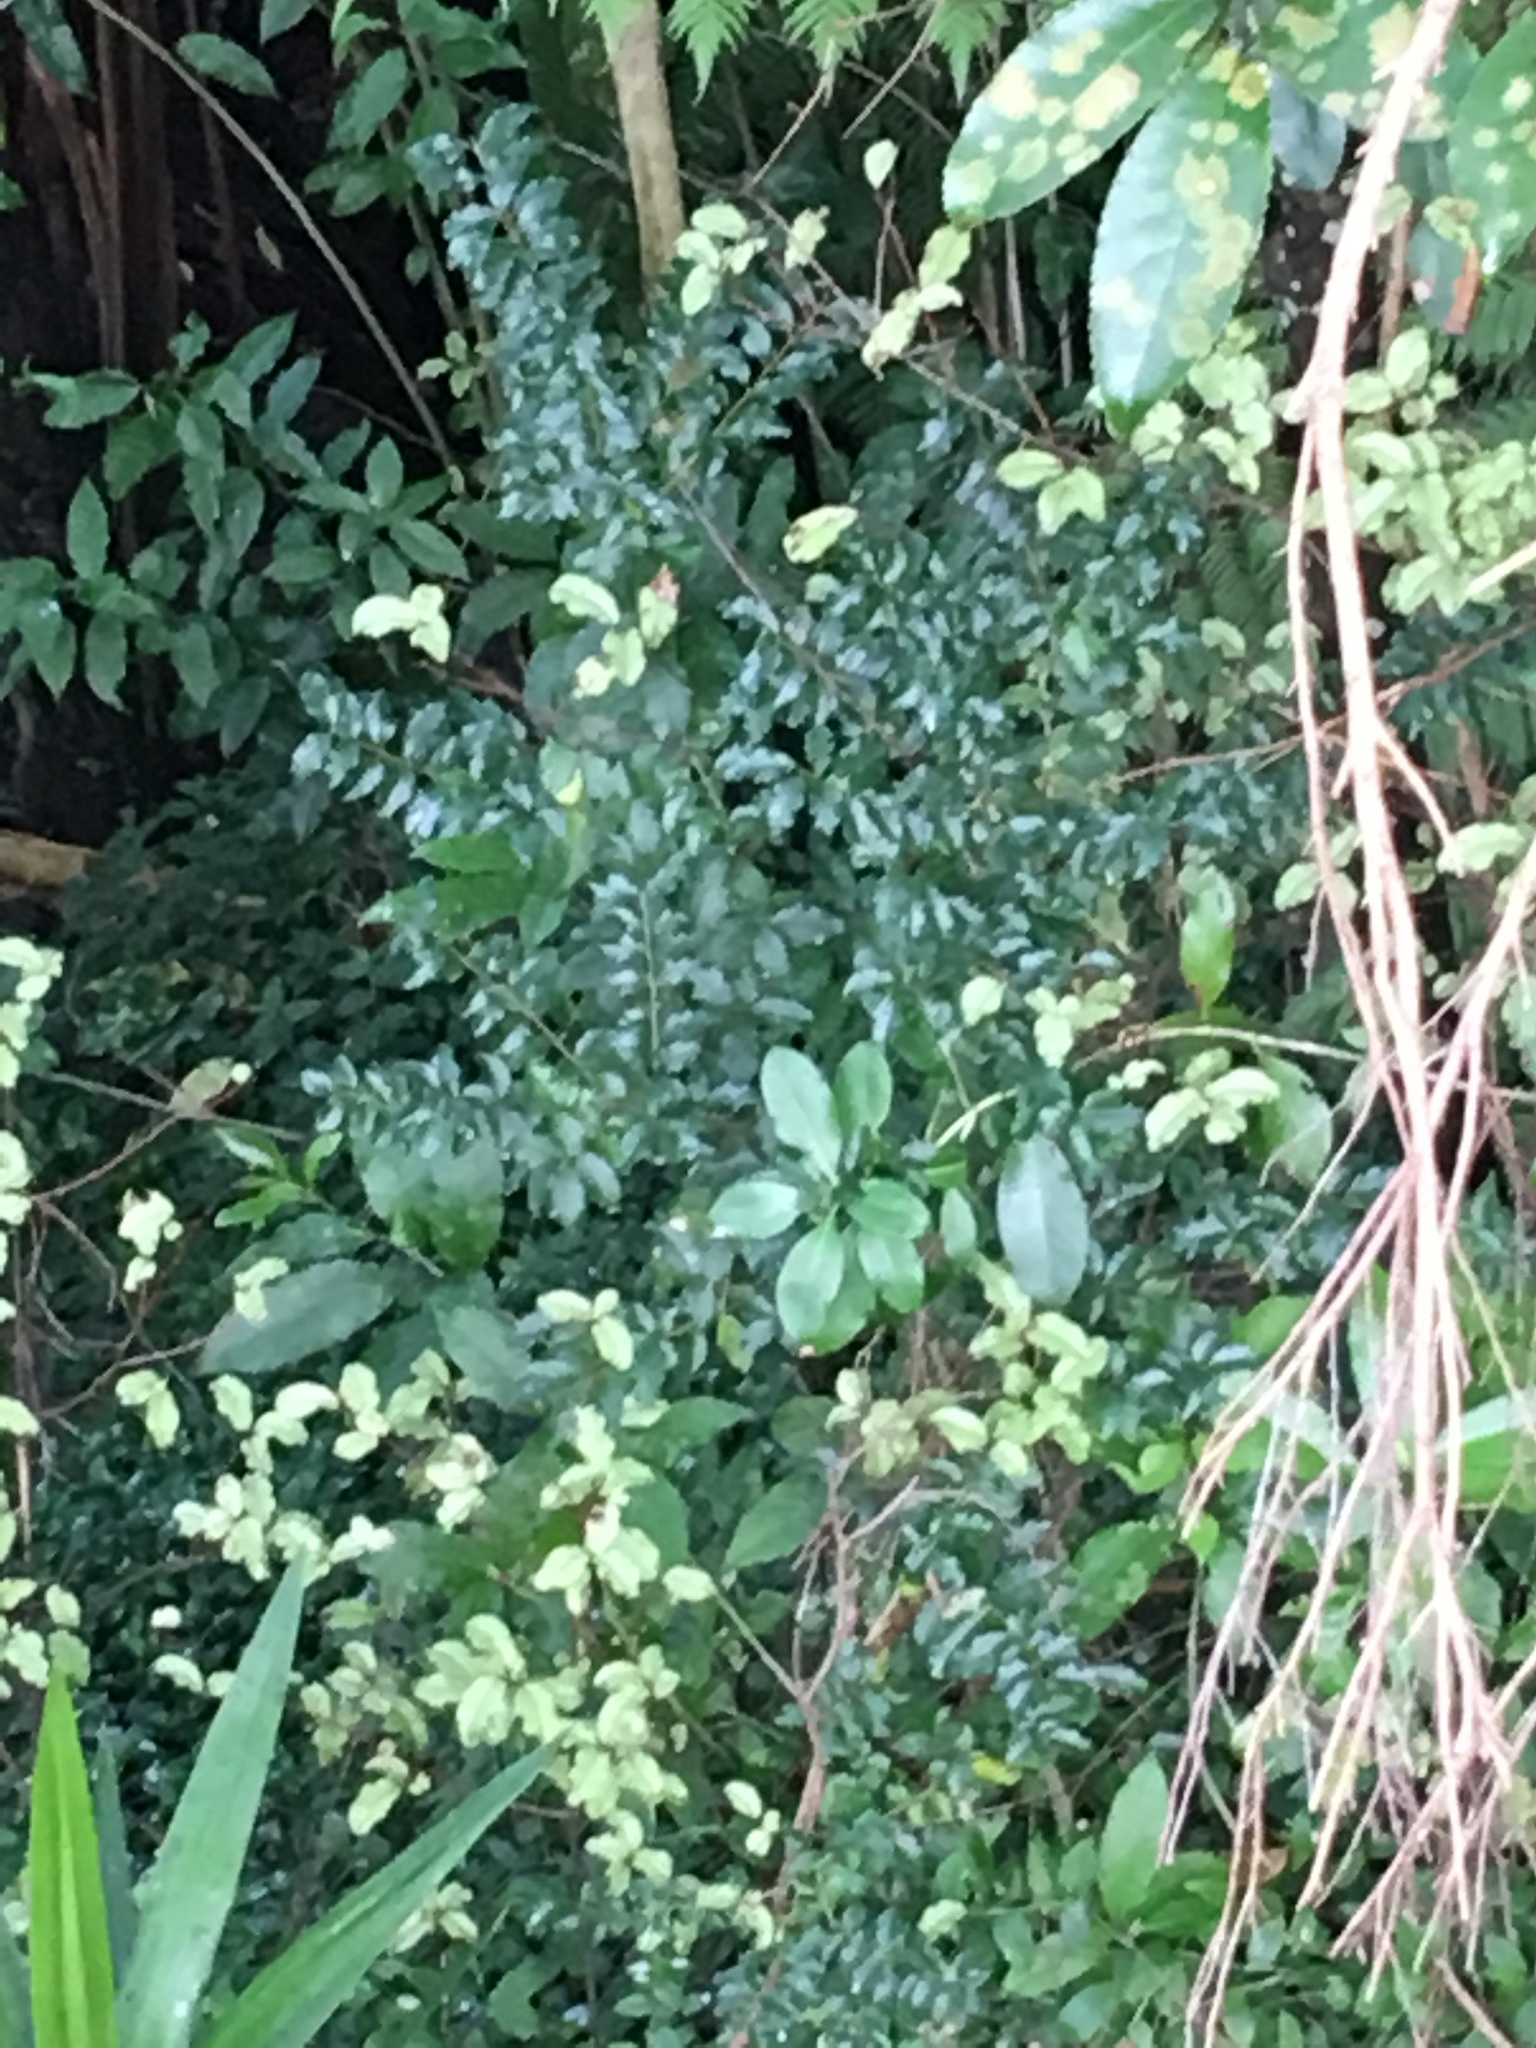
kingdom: Plantae
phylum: Tracheophyta
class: Magnoliopsida
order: Lamiales
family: Oleaceae
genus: Ligustrum
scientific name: Ligustrum sinense
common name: Chinese privet
